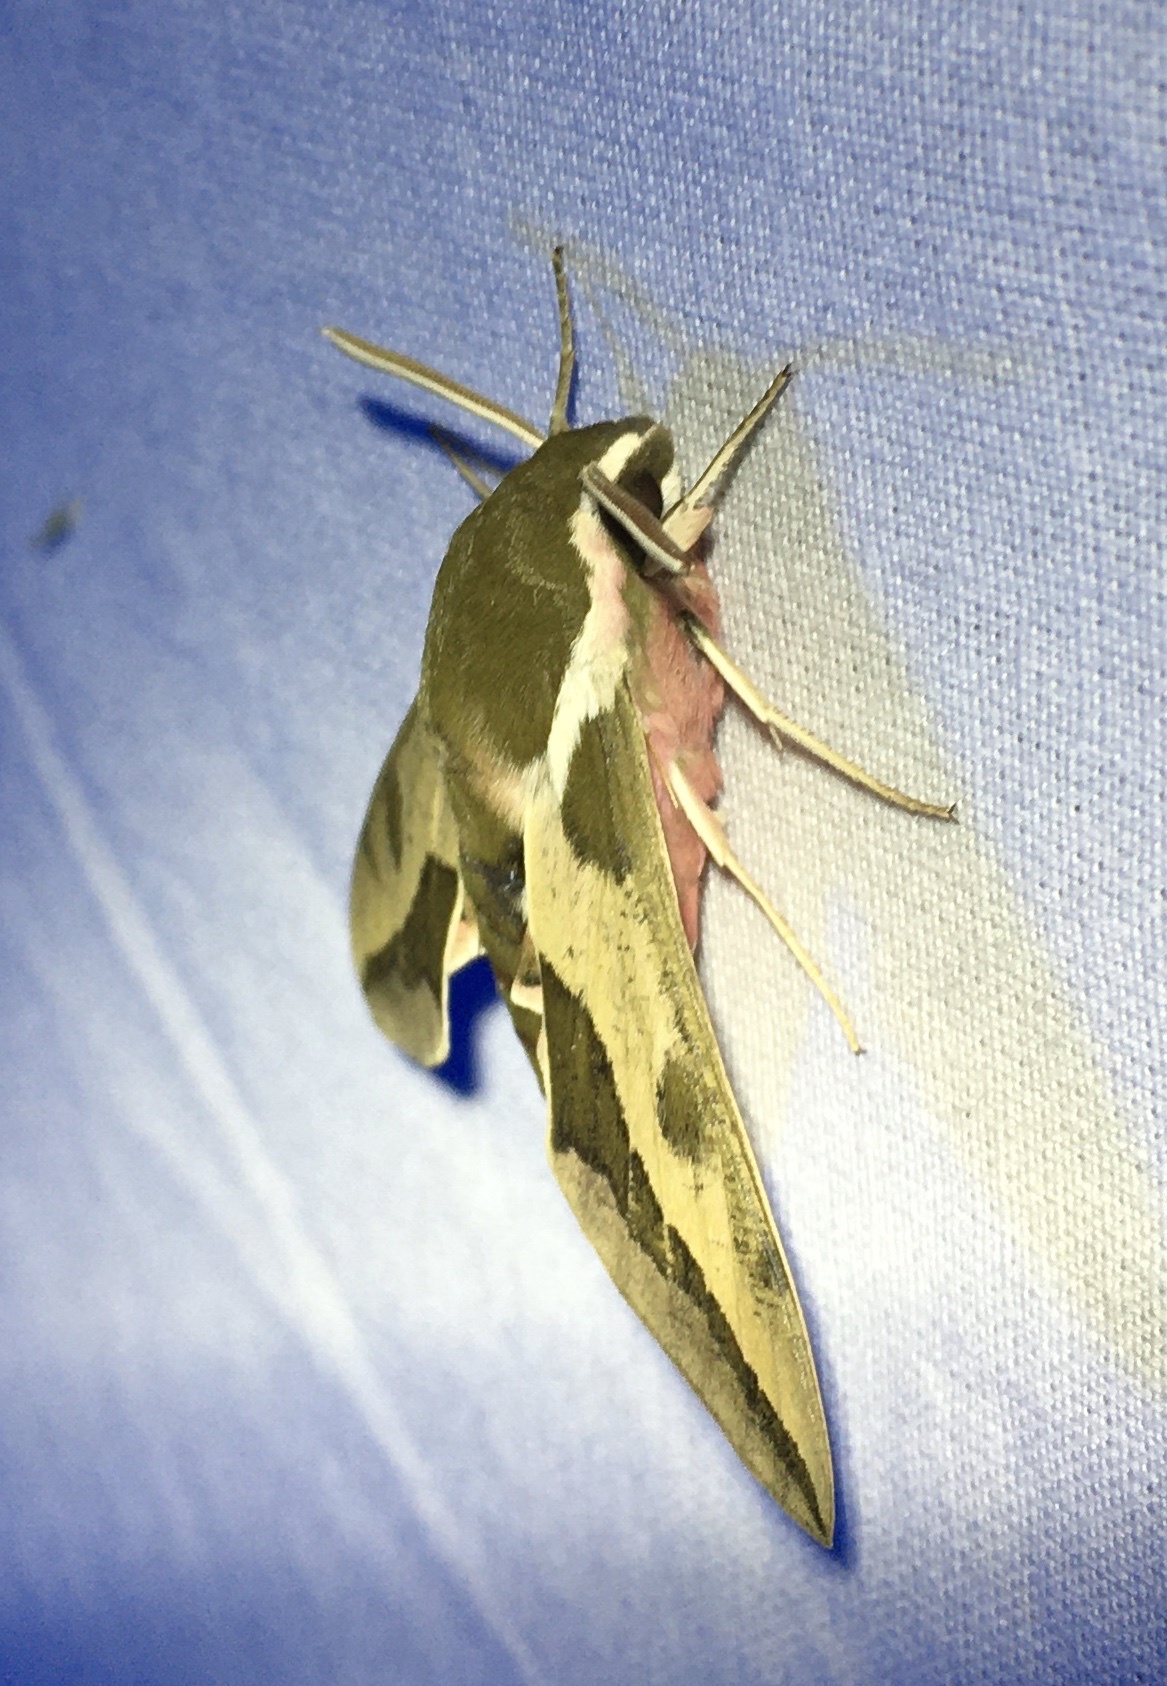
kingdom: Animalia
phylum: Arthropoda
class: Insecta
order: Lepidoptera
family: Sphingidae
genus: Hyles
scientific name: Hyles euphorbiae
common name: Spurge hawk-moth
